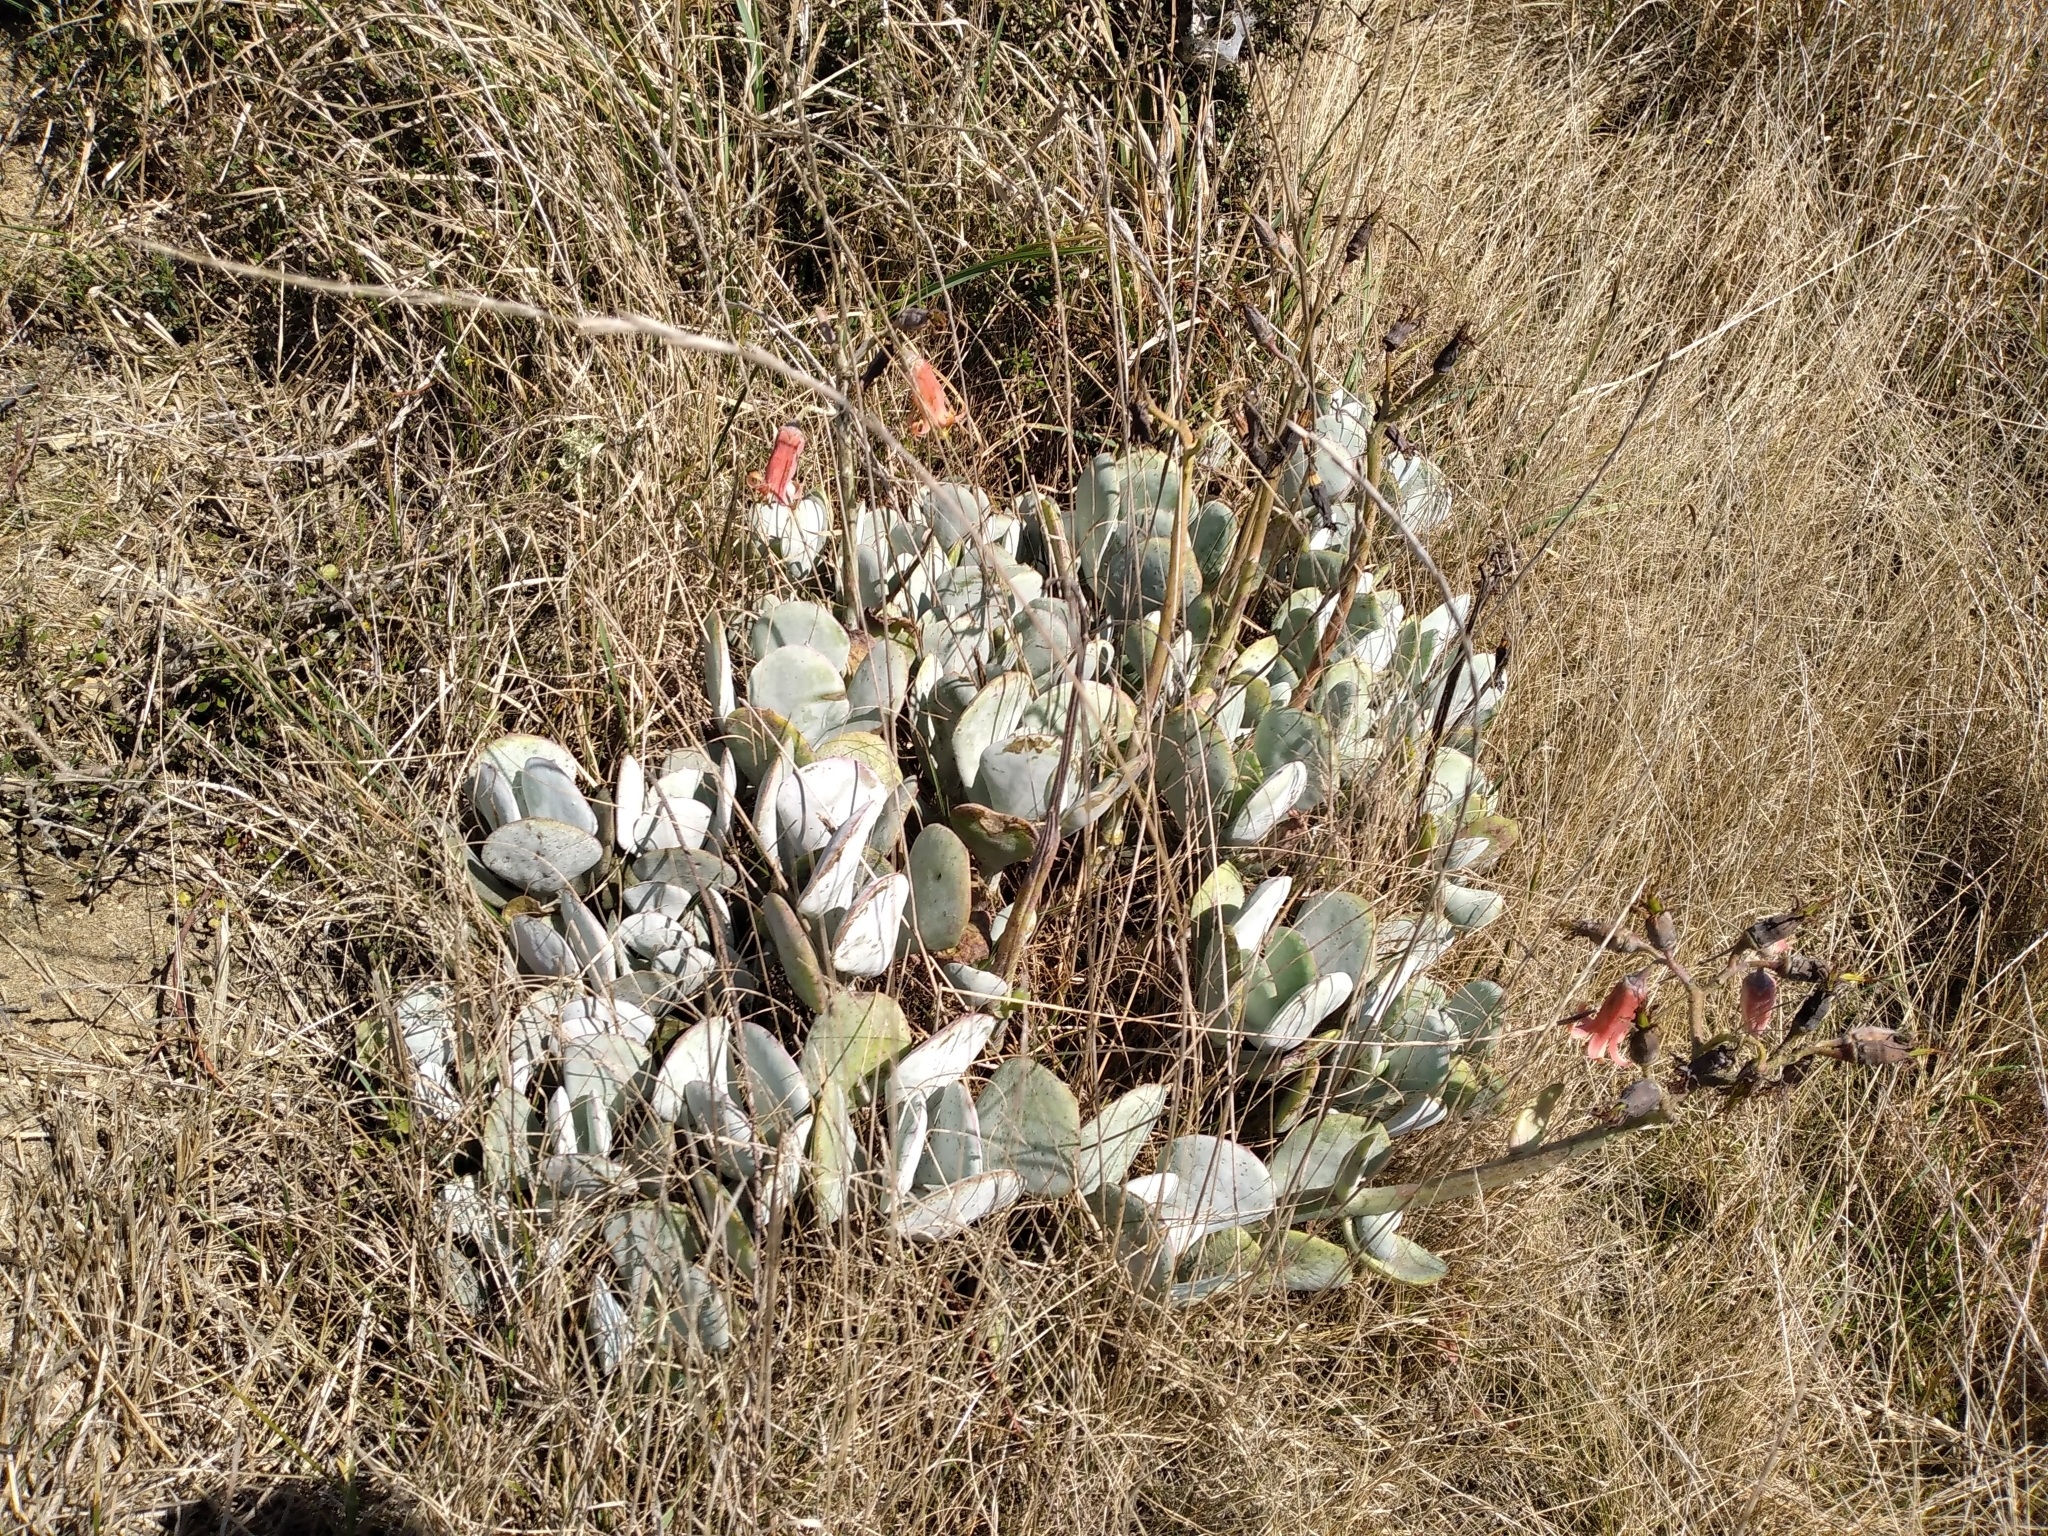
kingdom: Plantae
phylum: Tracheophyta
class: Magnoliopsida
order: Saxifragales
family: Crassulaceae
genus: Cotyledon
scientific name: Cotyledon orbiculata
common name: Pig's ear
